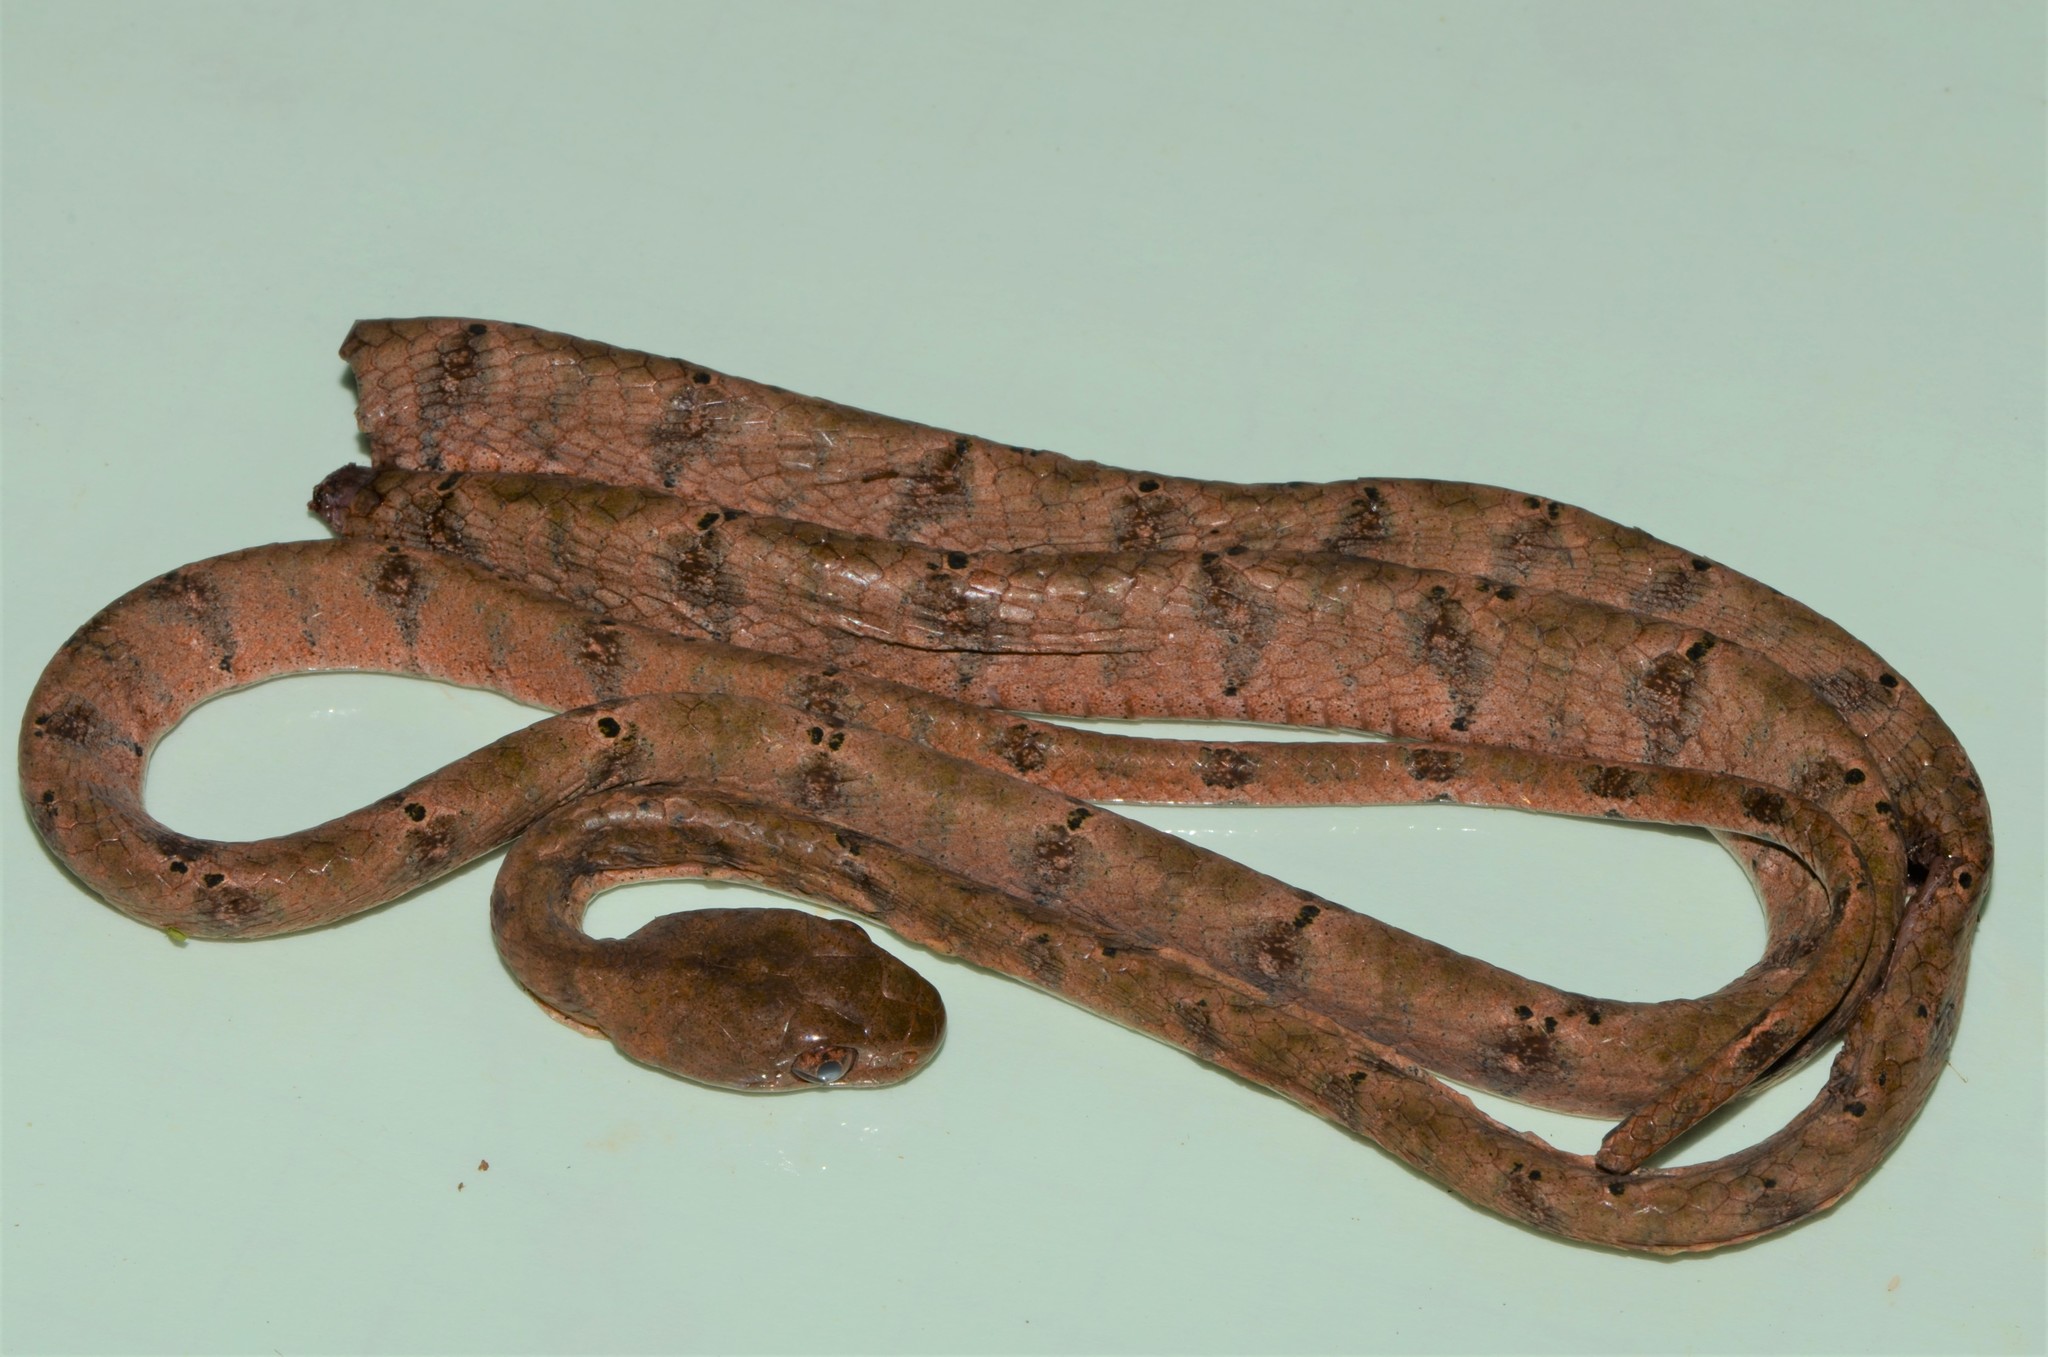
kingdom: Animalia
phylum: Chordata
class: Squamata
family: Colubridae
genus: Toxicodryas
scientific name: Toxicodryas adamanteus
